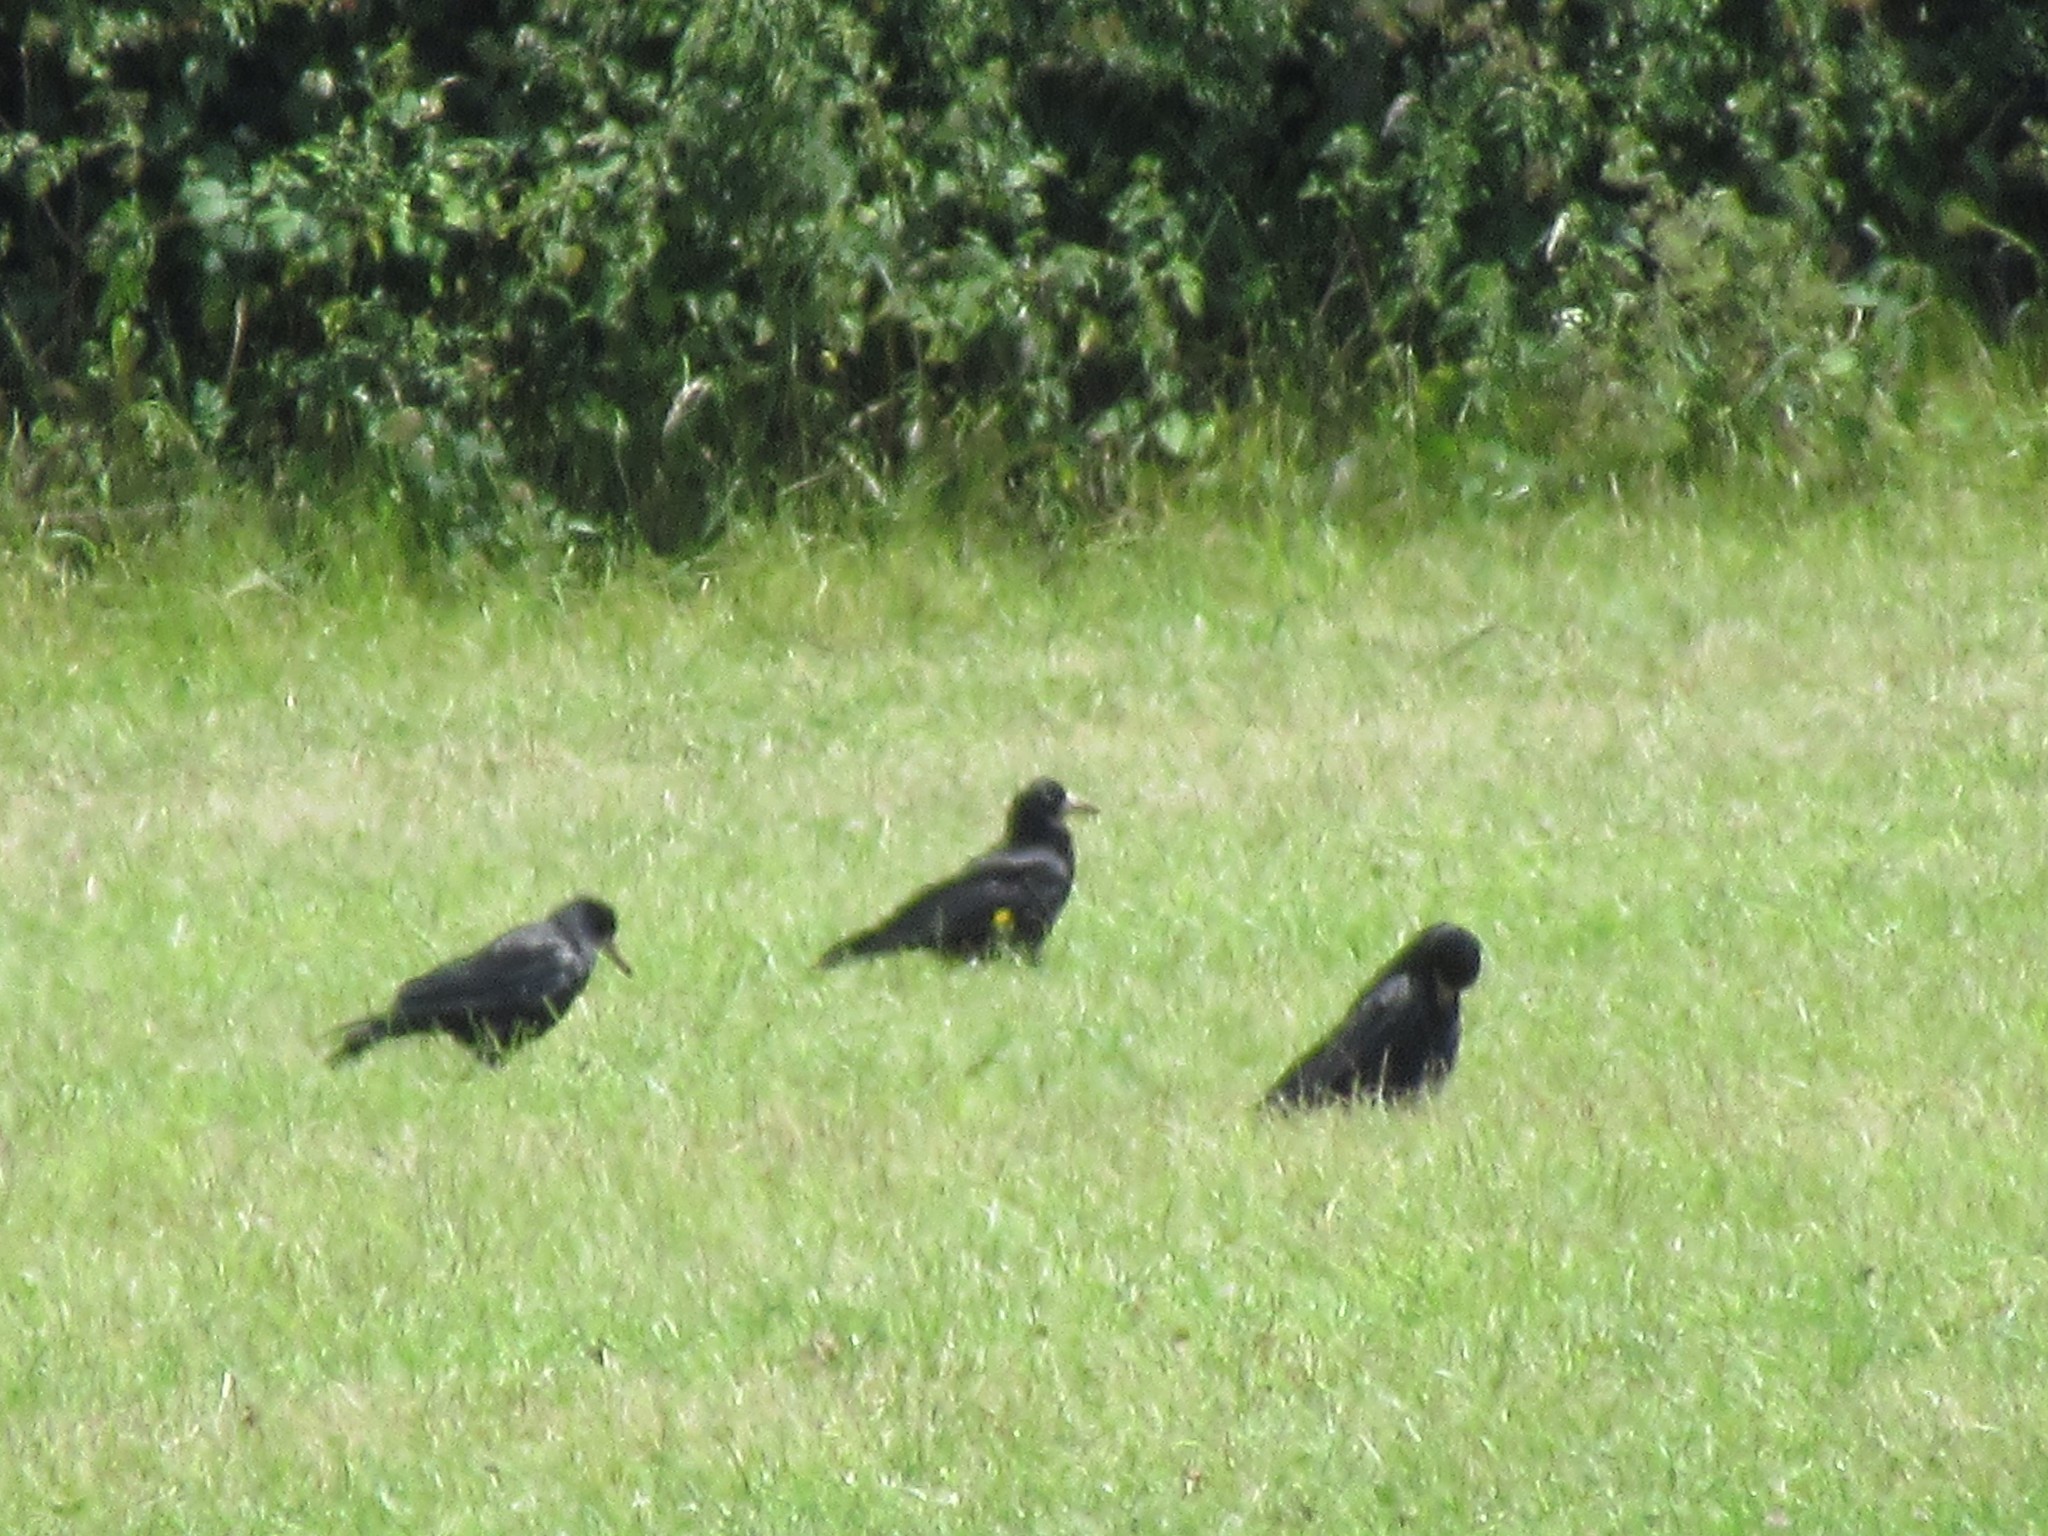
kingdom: Animalia
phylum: Chordata
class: Aves
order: Passeriformes
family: Corvidae
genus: Corvus
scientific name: Corvus frugilegus
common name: Rook
